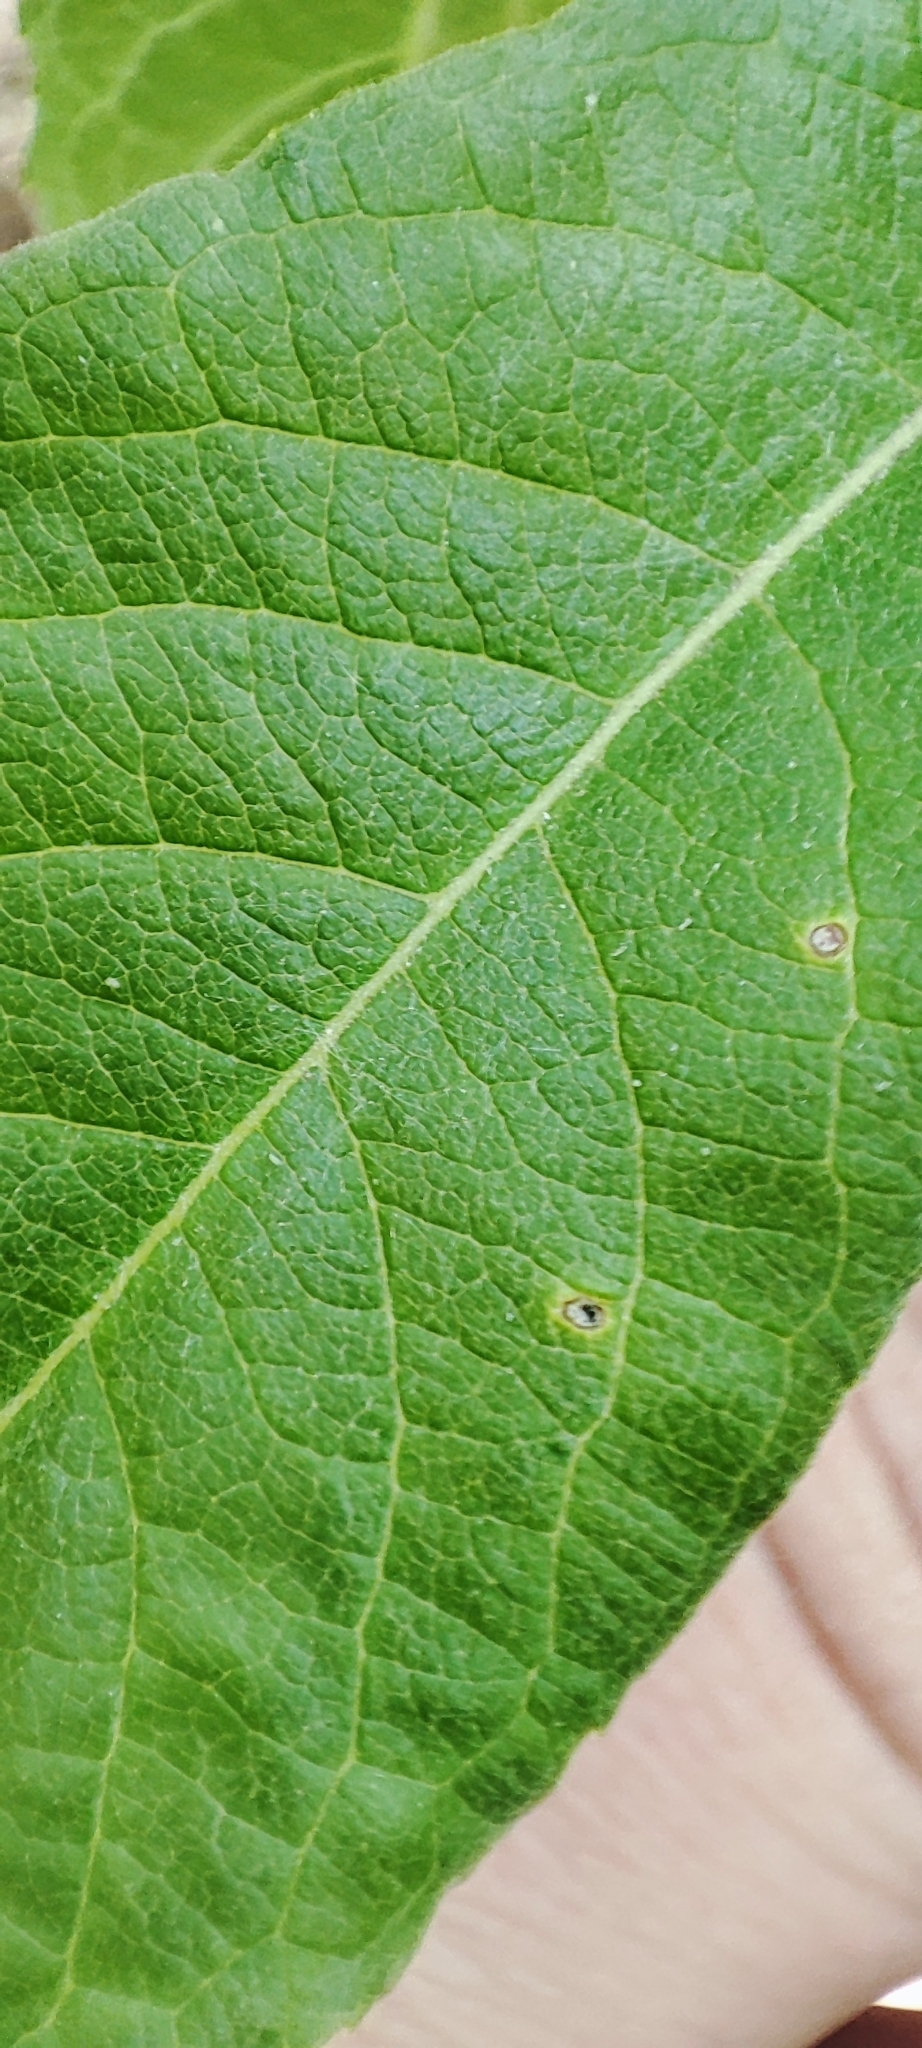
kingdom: Plantae
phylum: Tracheophyta
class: Magnoliopsida
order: Malpighiales
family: Salicaceae
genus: Salix
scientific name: Salix caprea
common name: Goat willow
